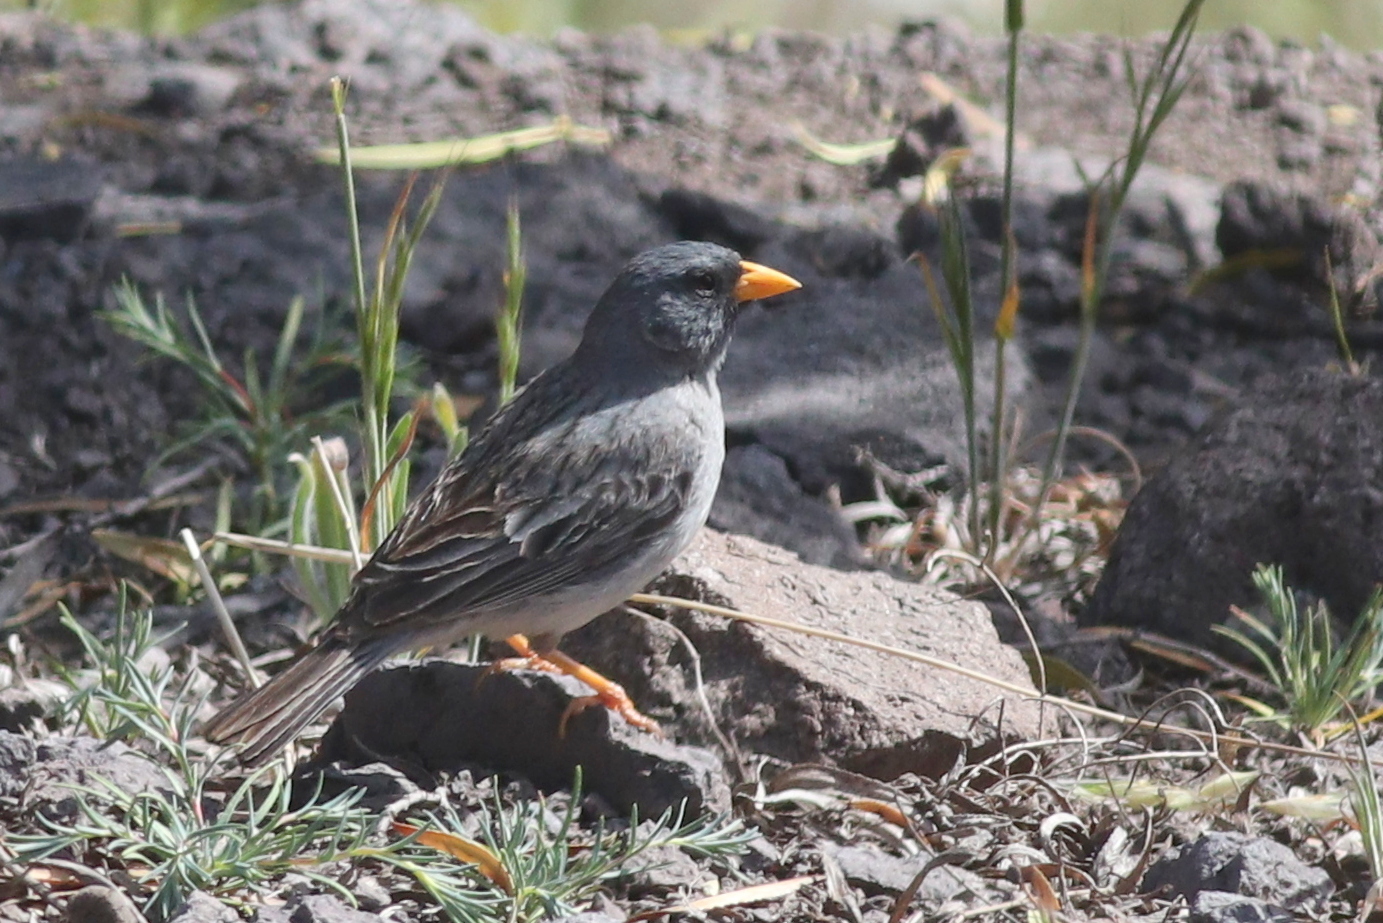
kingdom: Animalia
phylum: Chordata
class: Aves
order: Passeriformes
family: Thraupidae
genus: Porphyrospiza
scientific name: Porphyrospiza alaudina
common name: Band-tailed sierra finch
